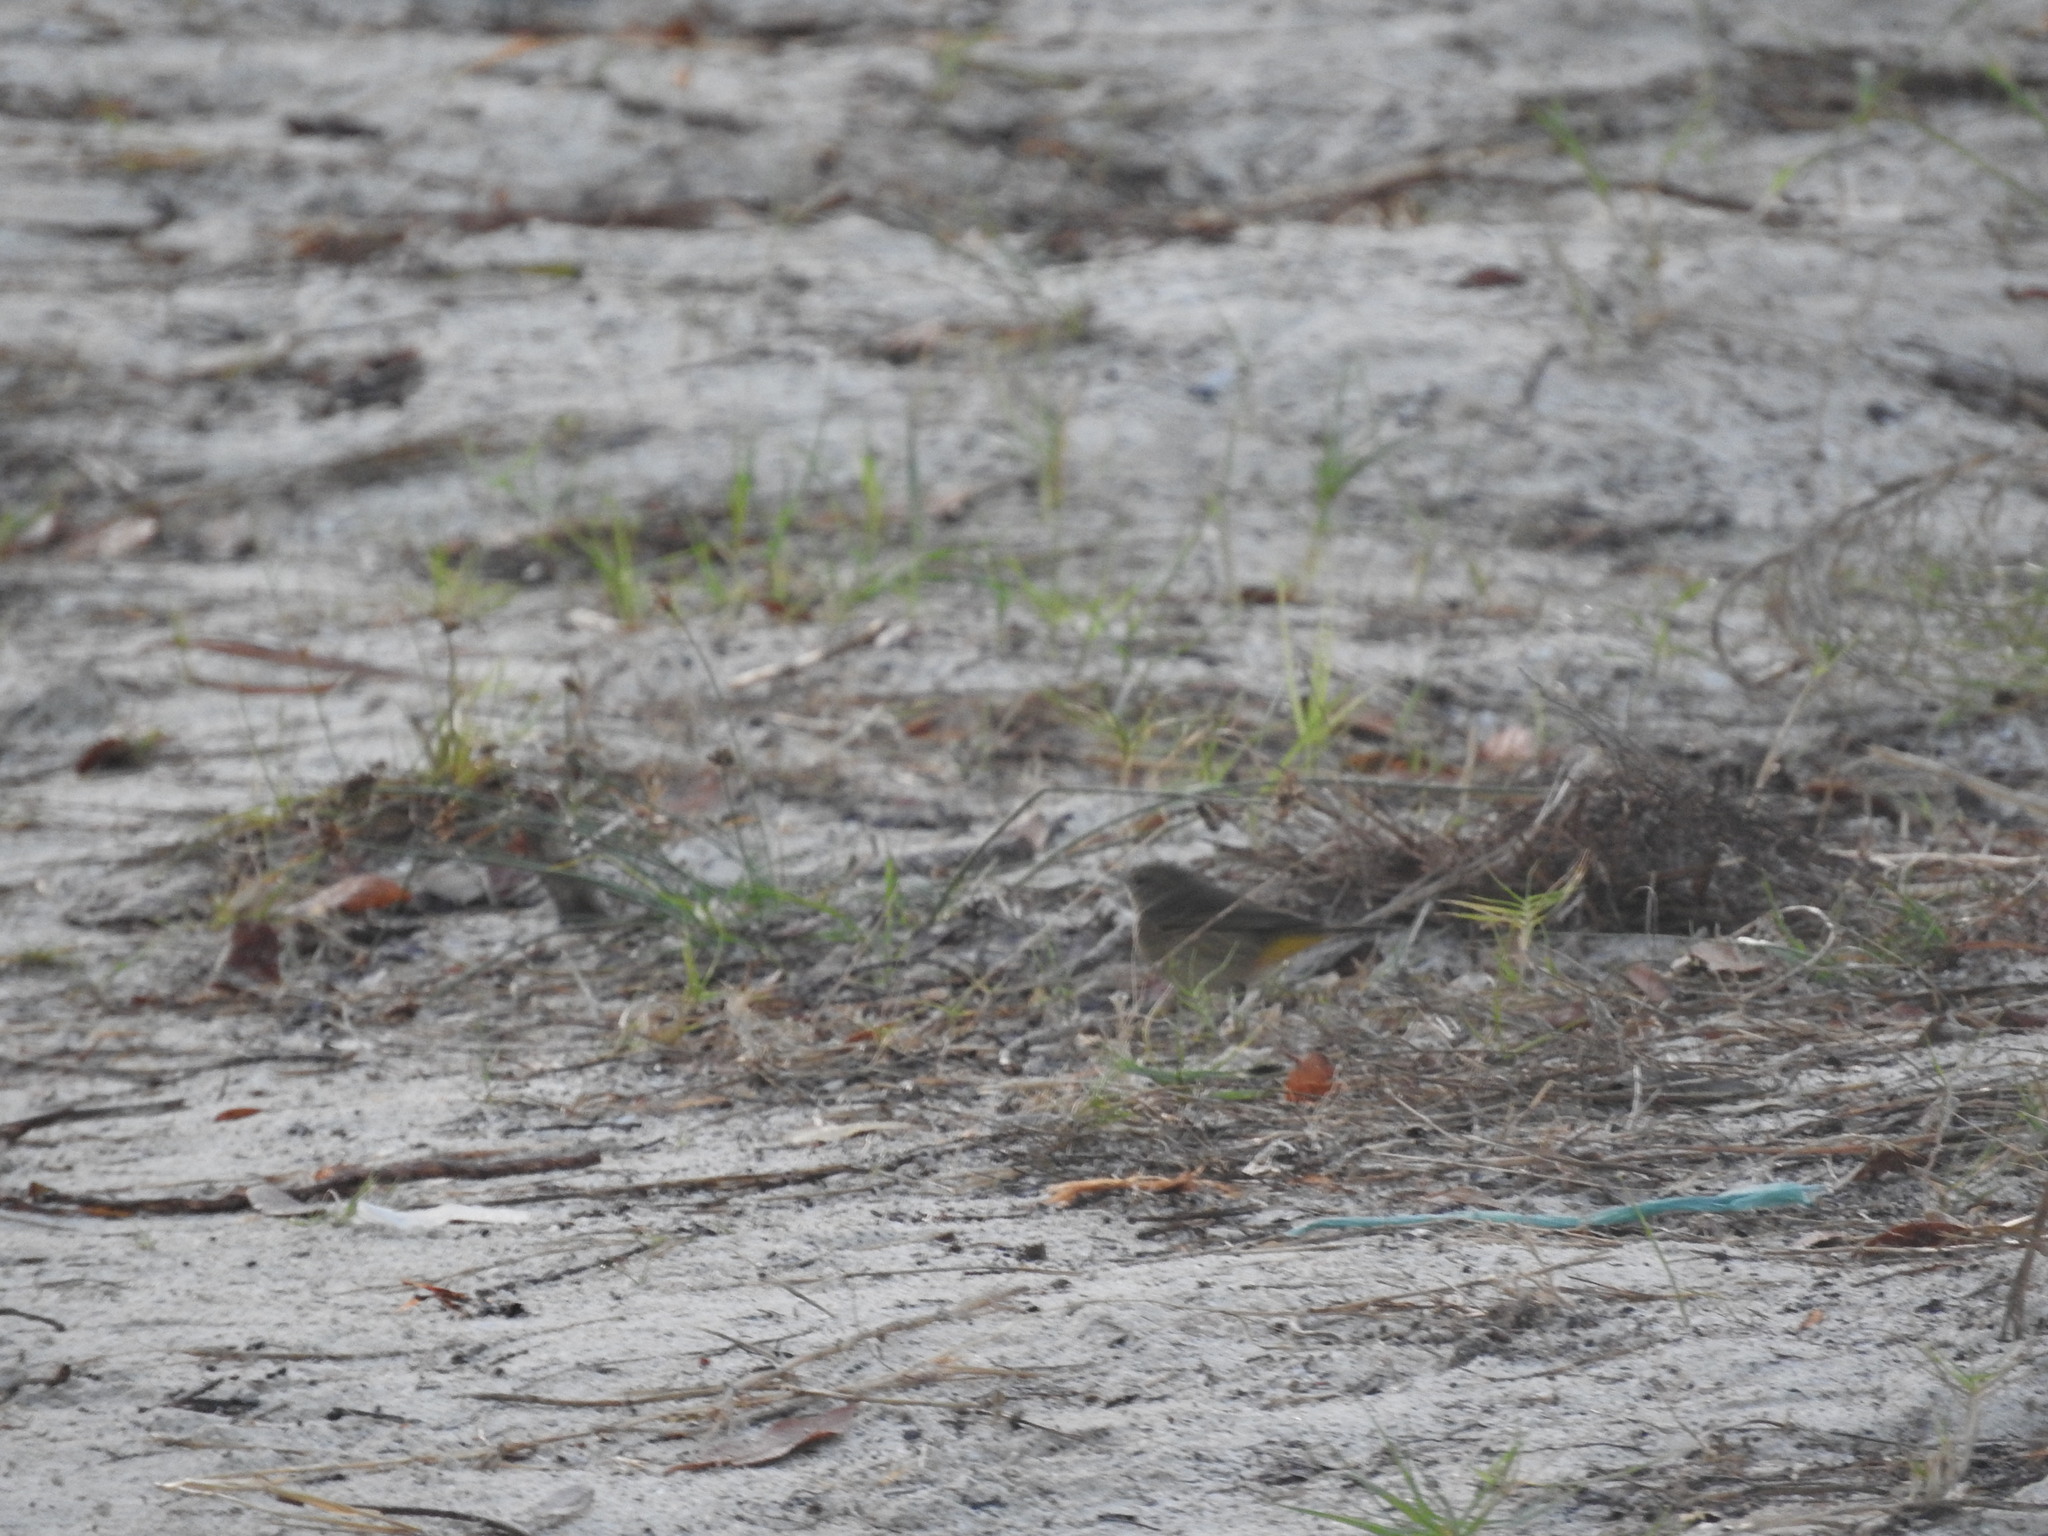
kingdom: Animalia
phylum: Chordata
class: Aves
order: Passeriformes
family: Parulidae
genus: Setophaga
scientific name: Setophaga palmarum
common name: Palm warbler
